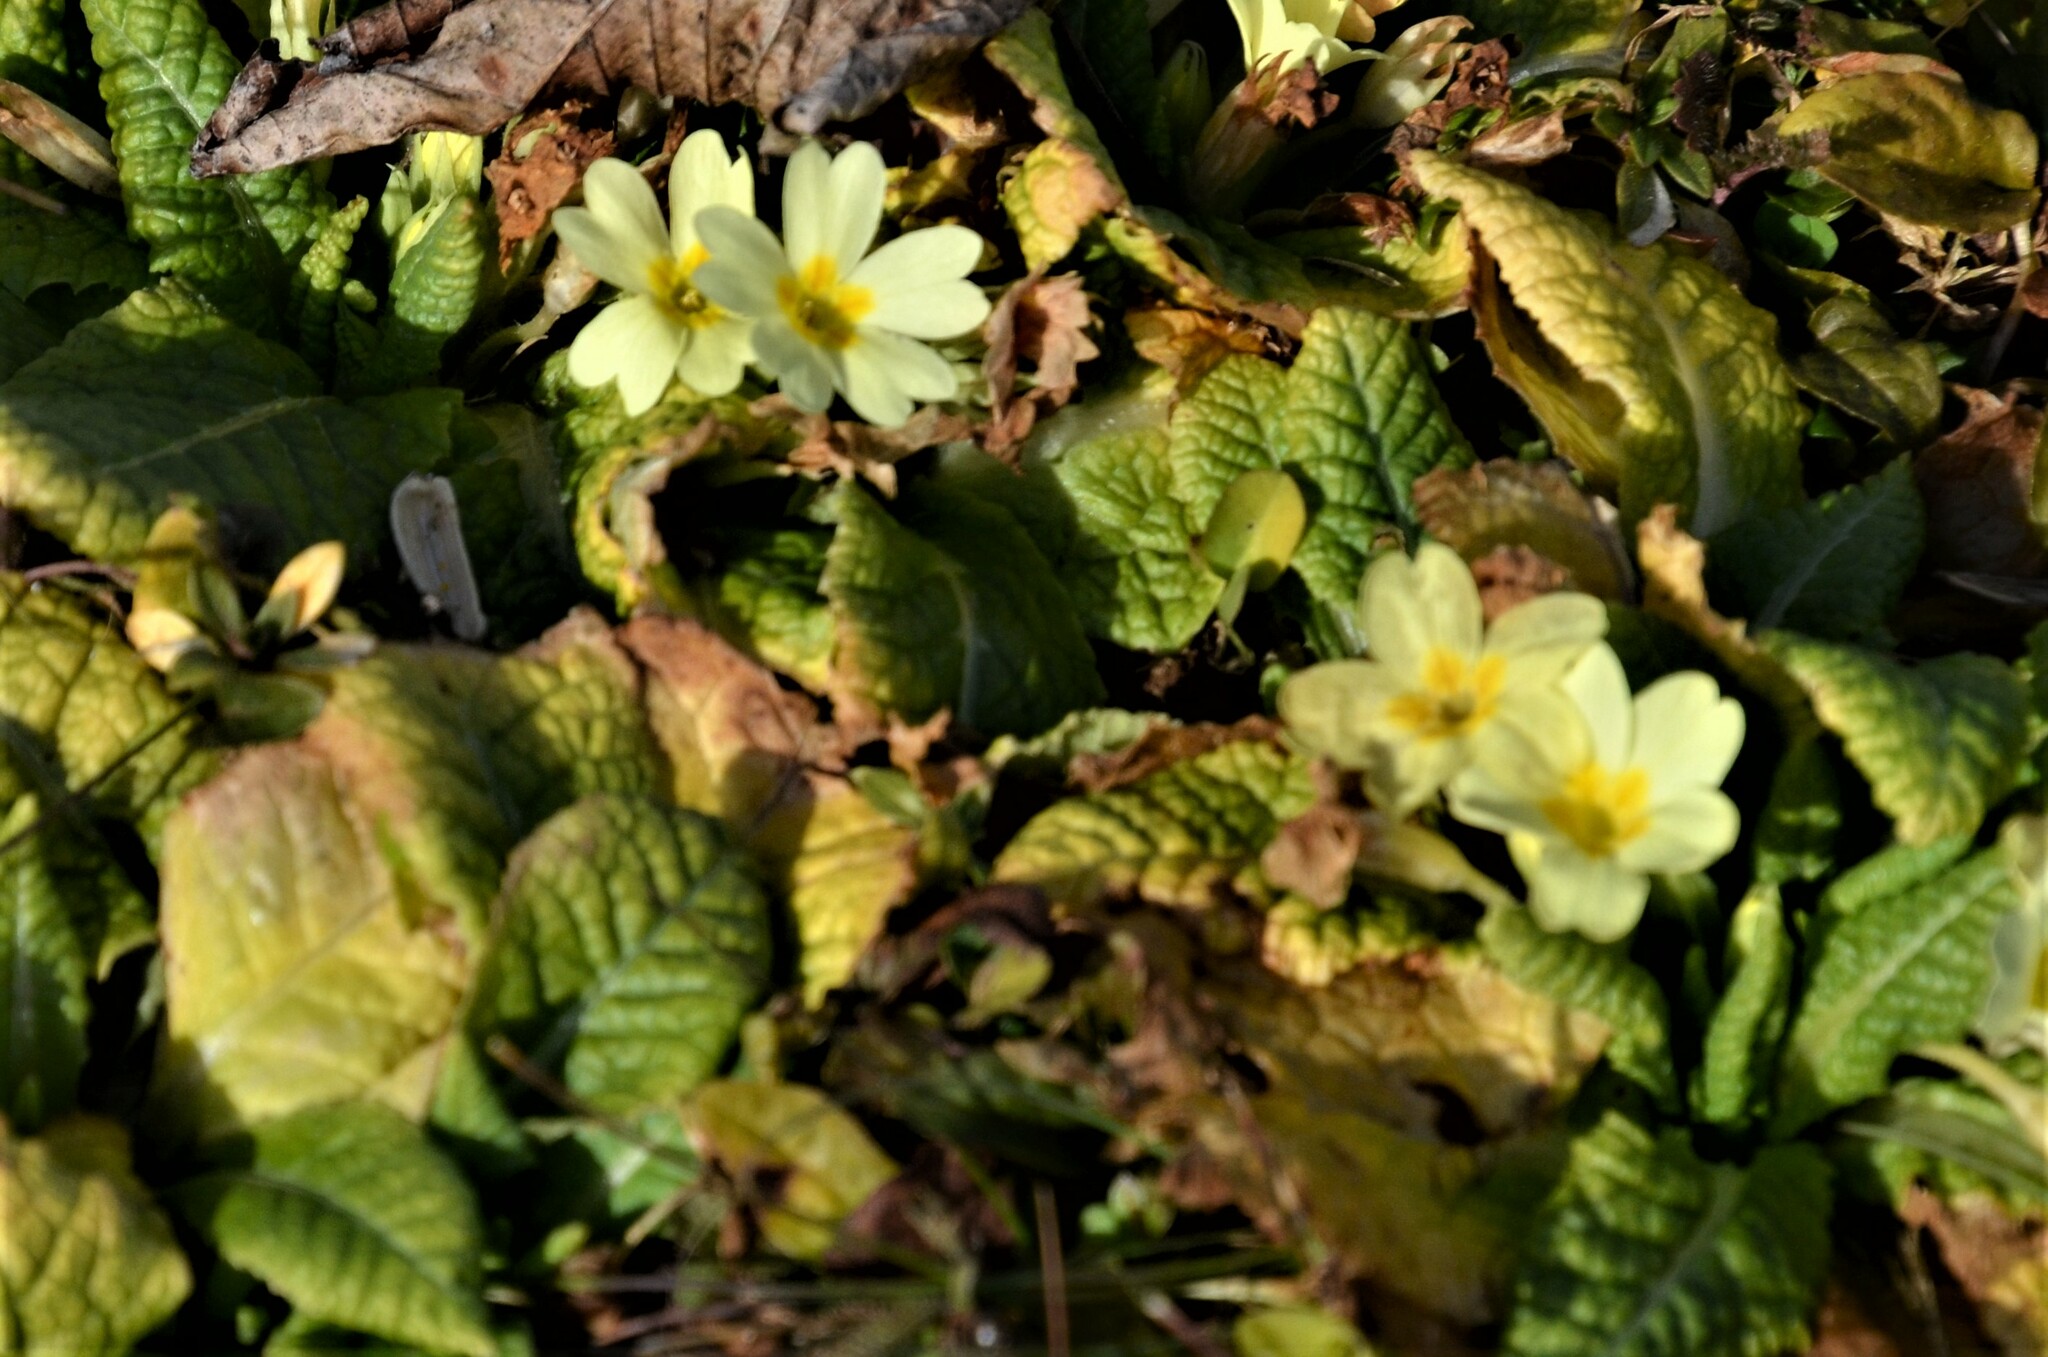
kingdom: Plantae
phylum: Tracheophyta
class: Magnoliopsida
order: Ericales
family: Primulaceae
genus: Primula
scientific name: Primula vulgaris
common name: Primrose
